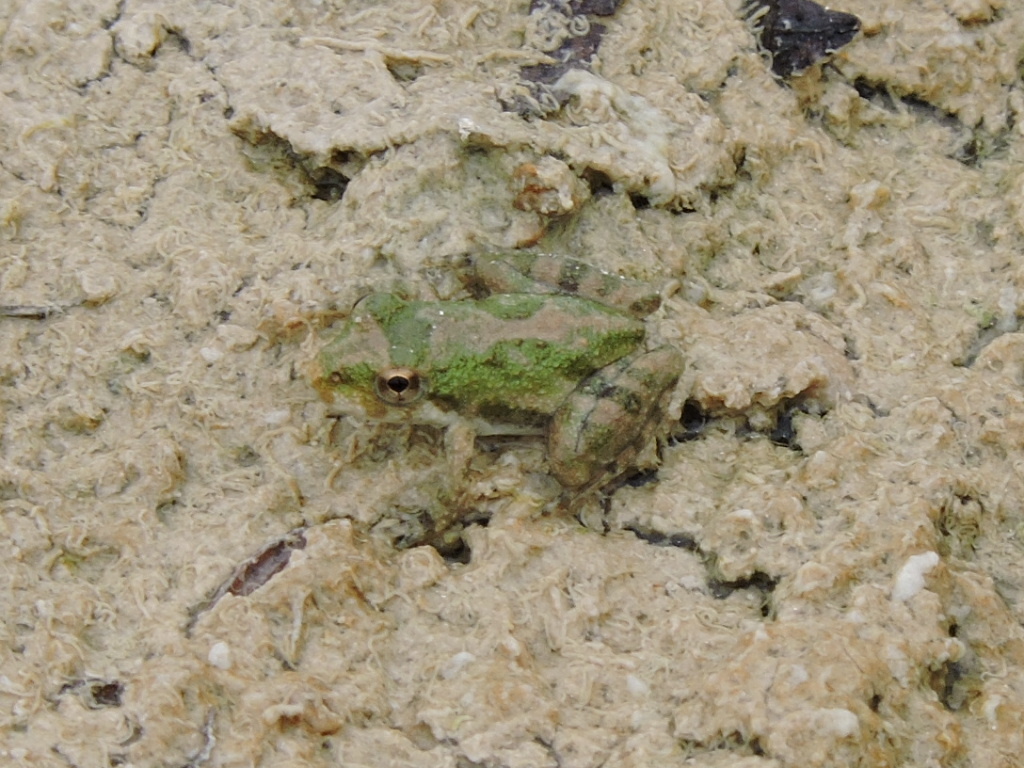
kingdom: Animalia
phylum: Chordata
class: Amphibia
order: Anura
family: Hylidae
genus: Acris
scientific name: Acris blanchardi
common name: Blanchard's cricket frog
